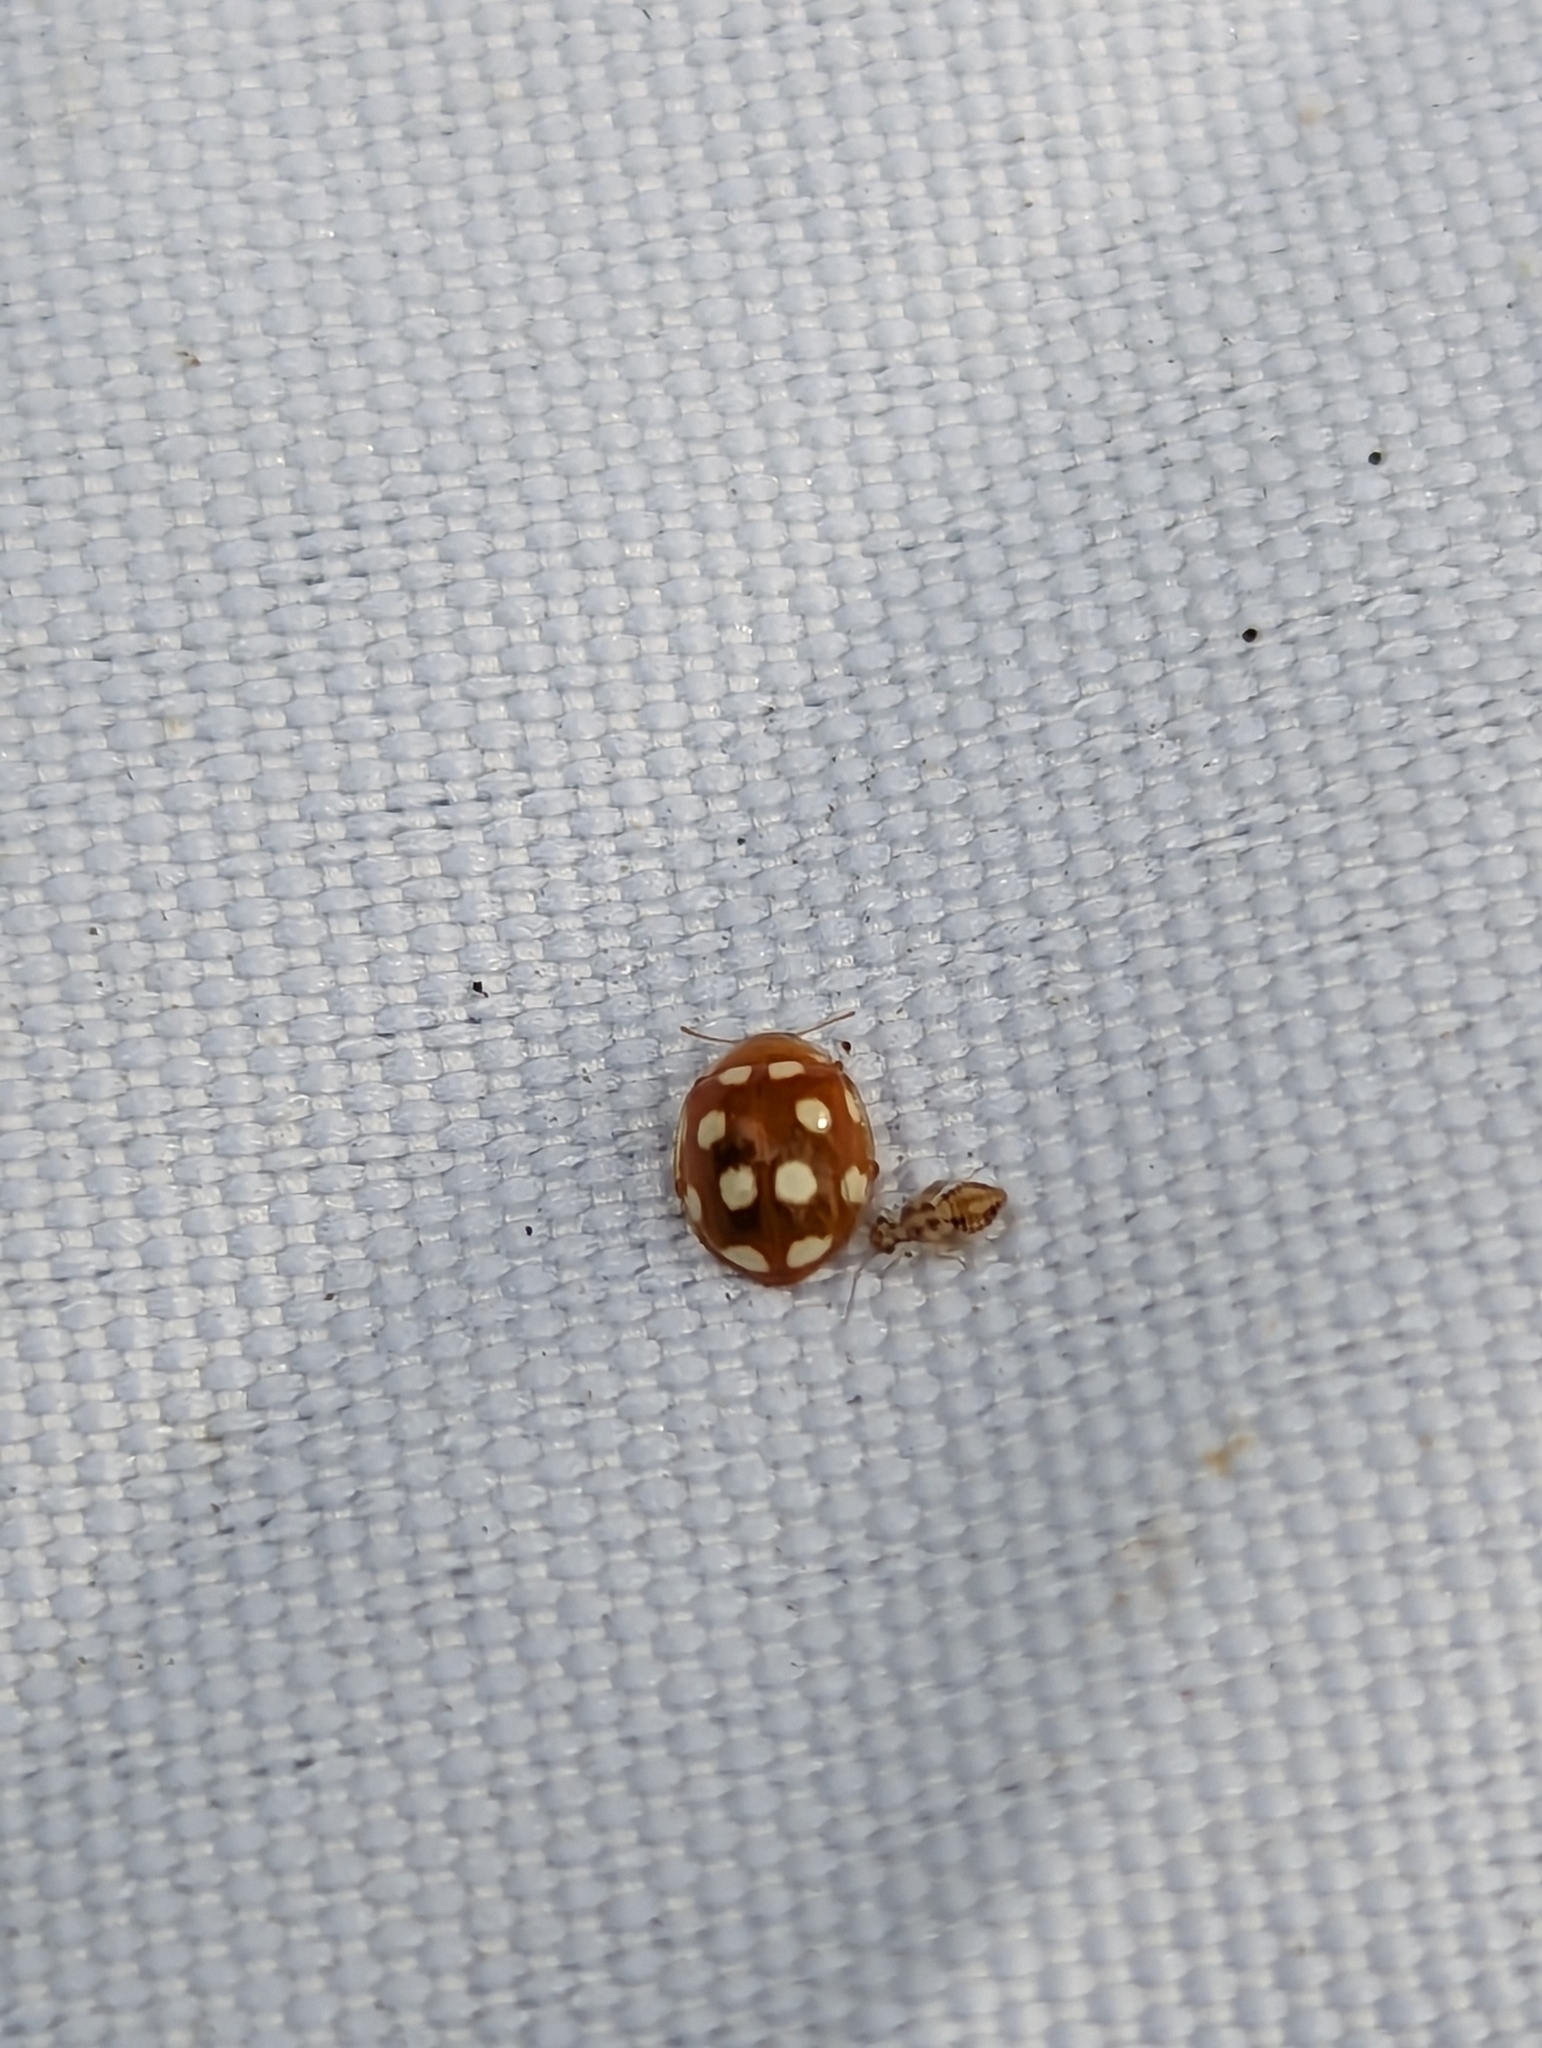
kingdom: Animalia
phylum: Arthropoda
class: Insecta
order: Coleoptera
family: Coccinellidae
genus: Vibidia
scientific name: Vibidia duodecimguttata
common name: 12-spot ladybird
